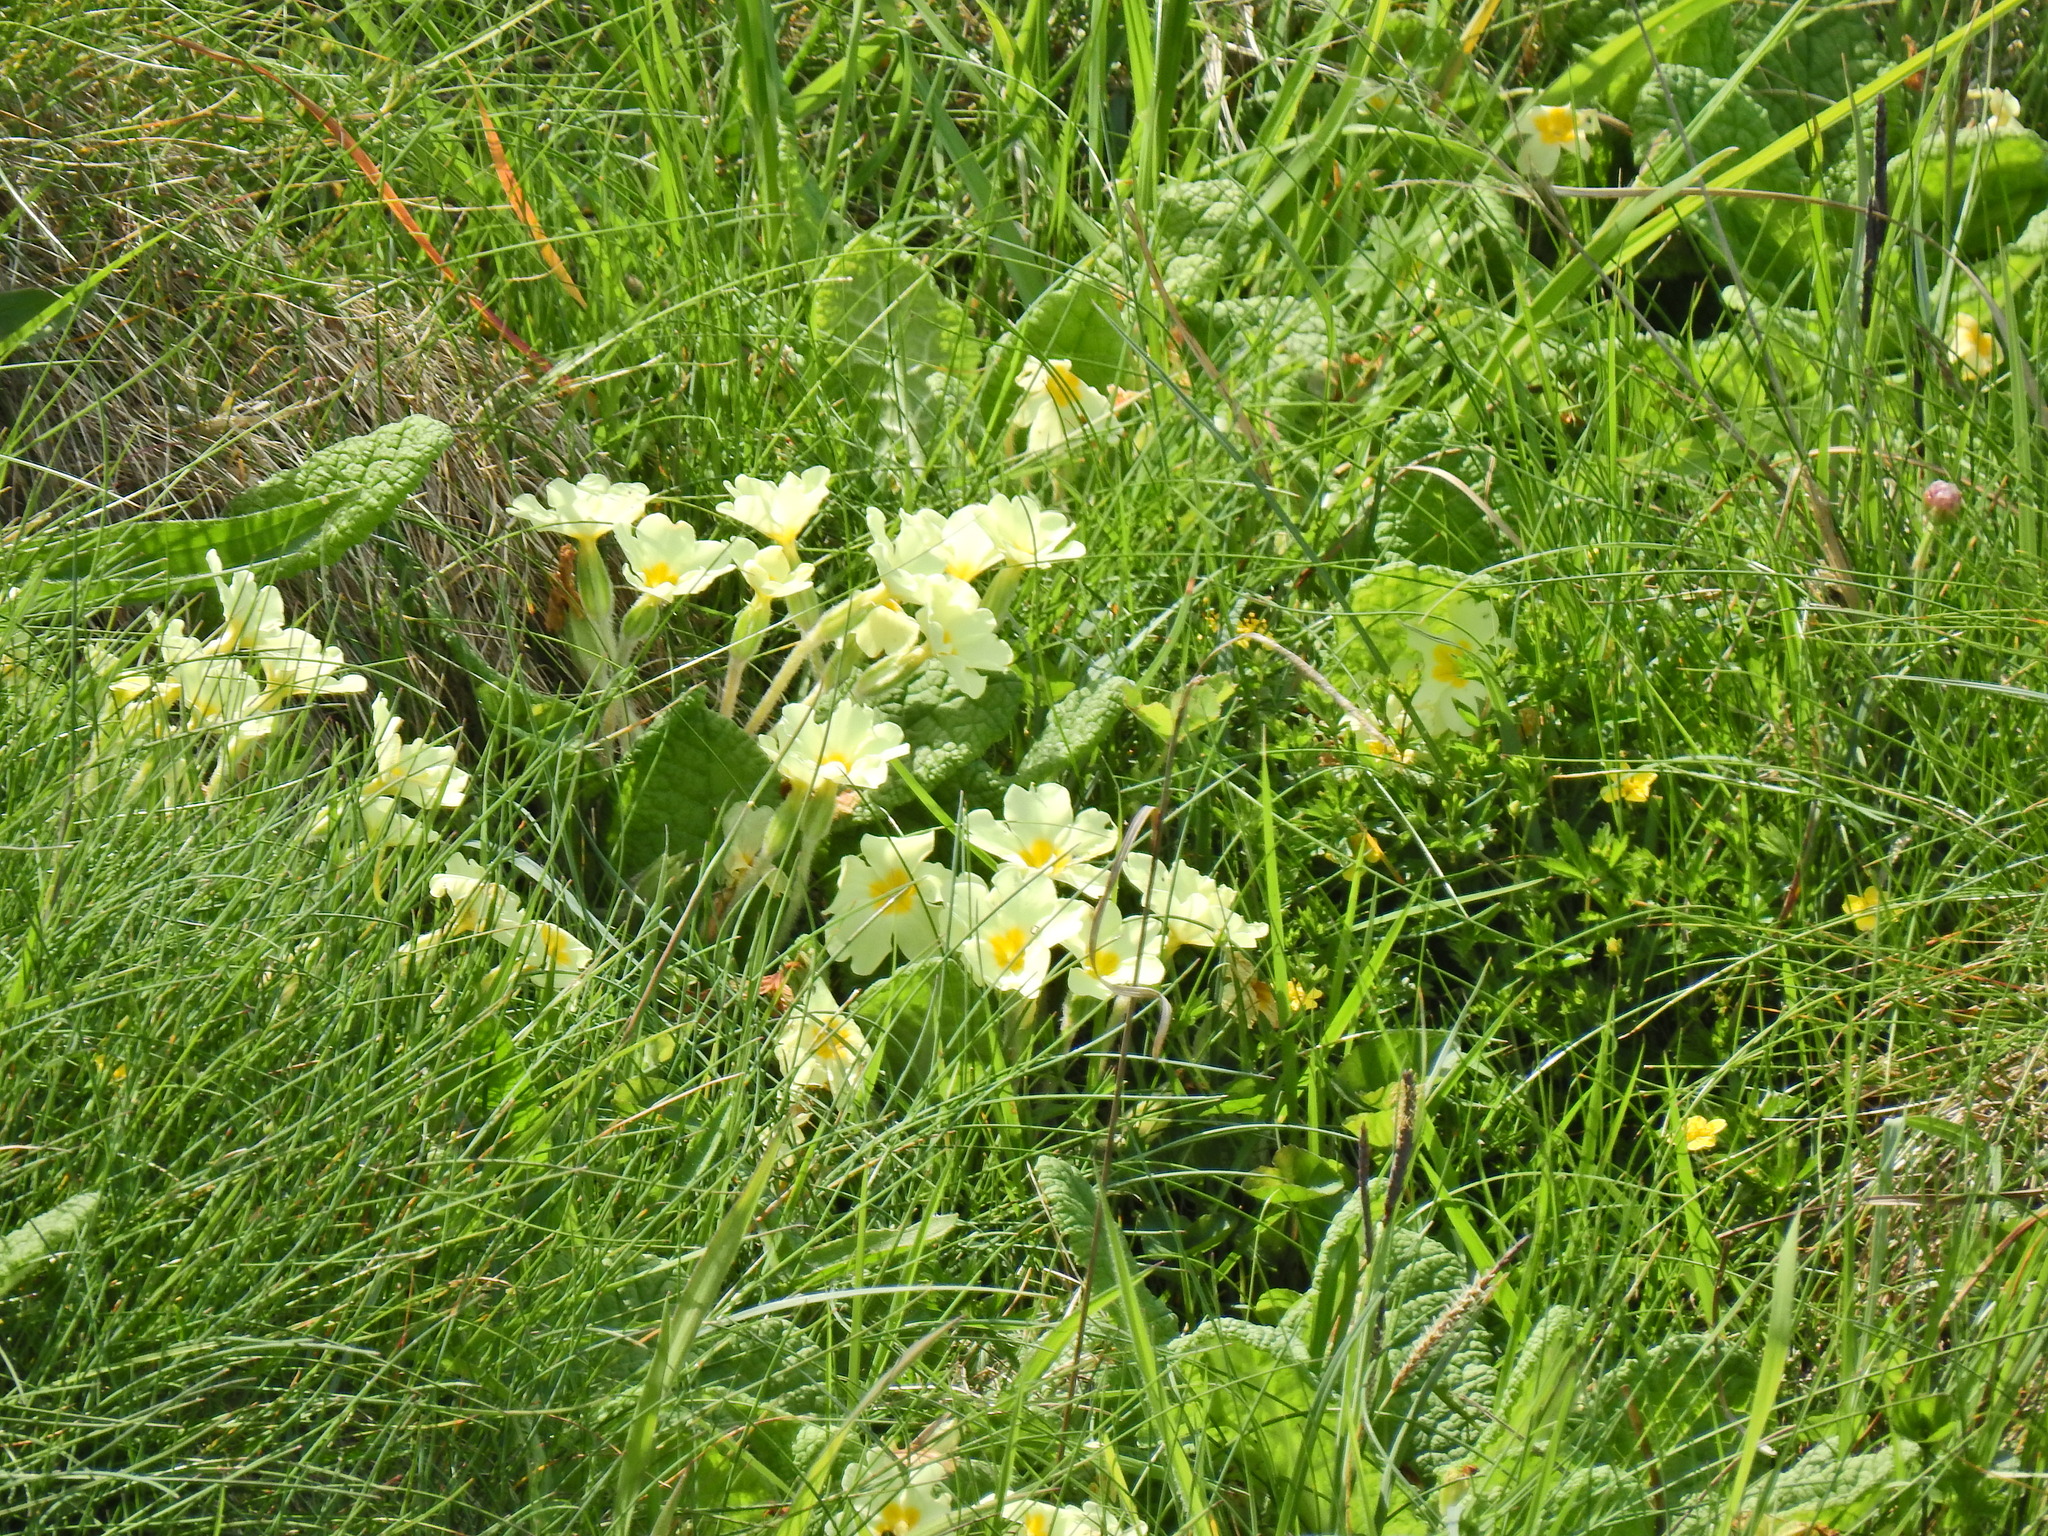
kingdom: Plantae
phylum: Tracheophyta
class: Magnoliopsida
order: Ericales
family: Primulaceae
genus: Primula
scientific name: Primula vulgaris
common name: Primrose
